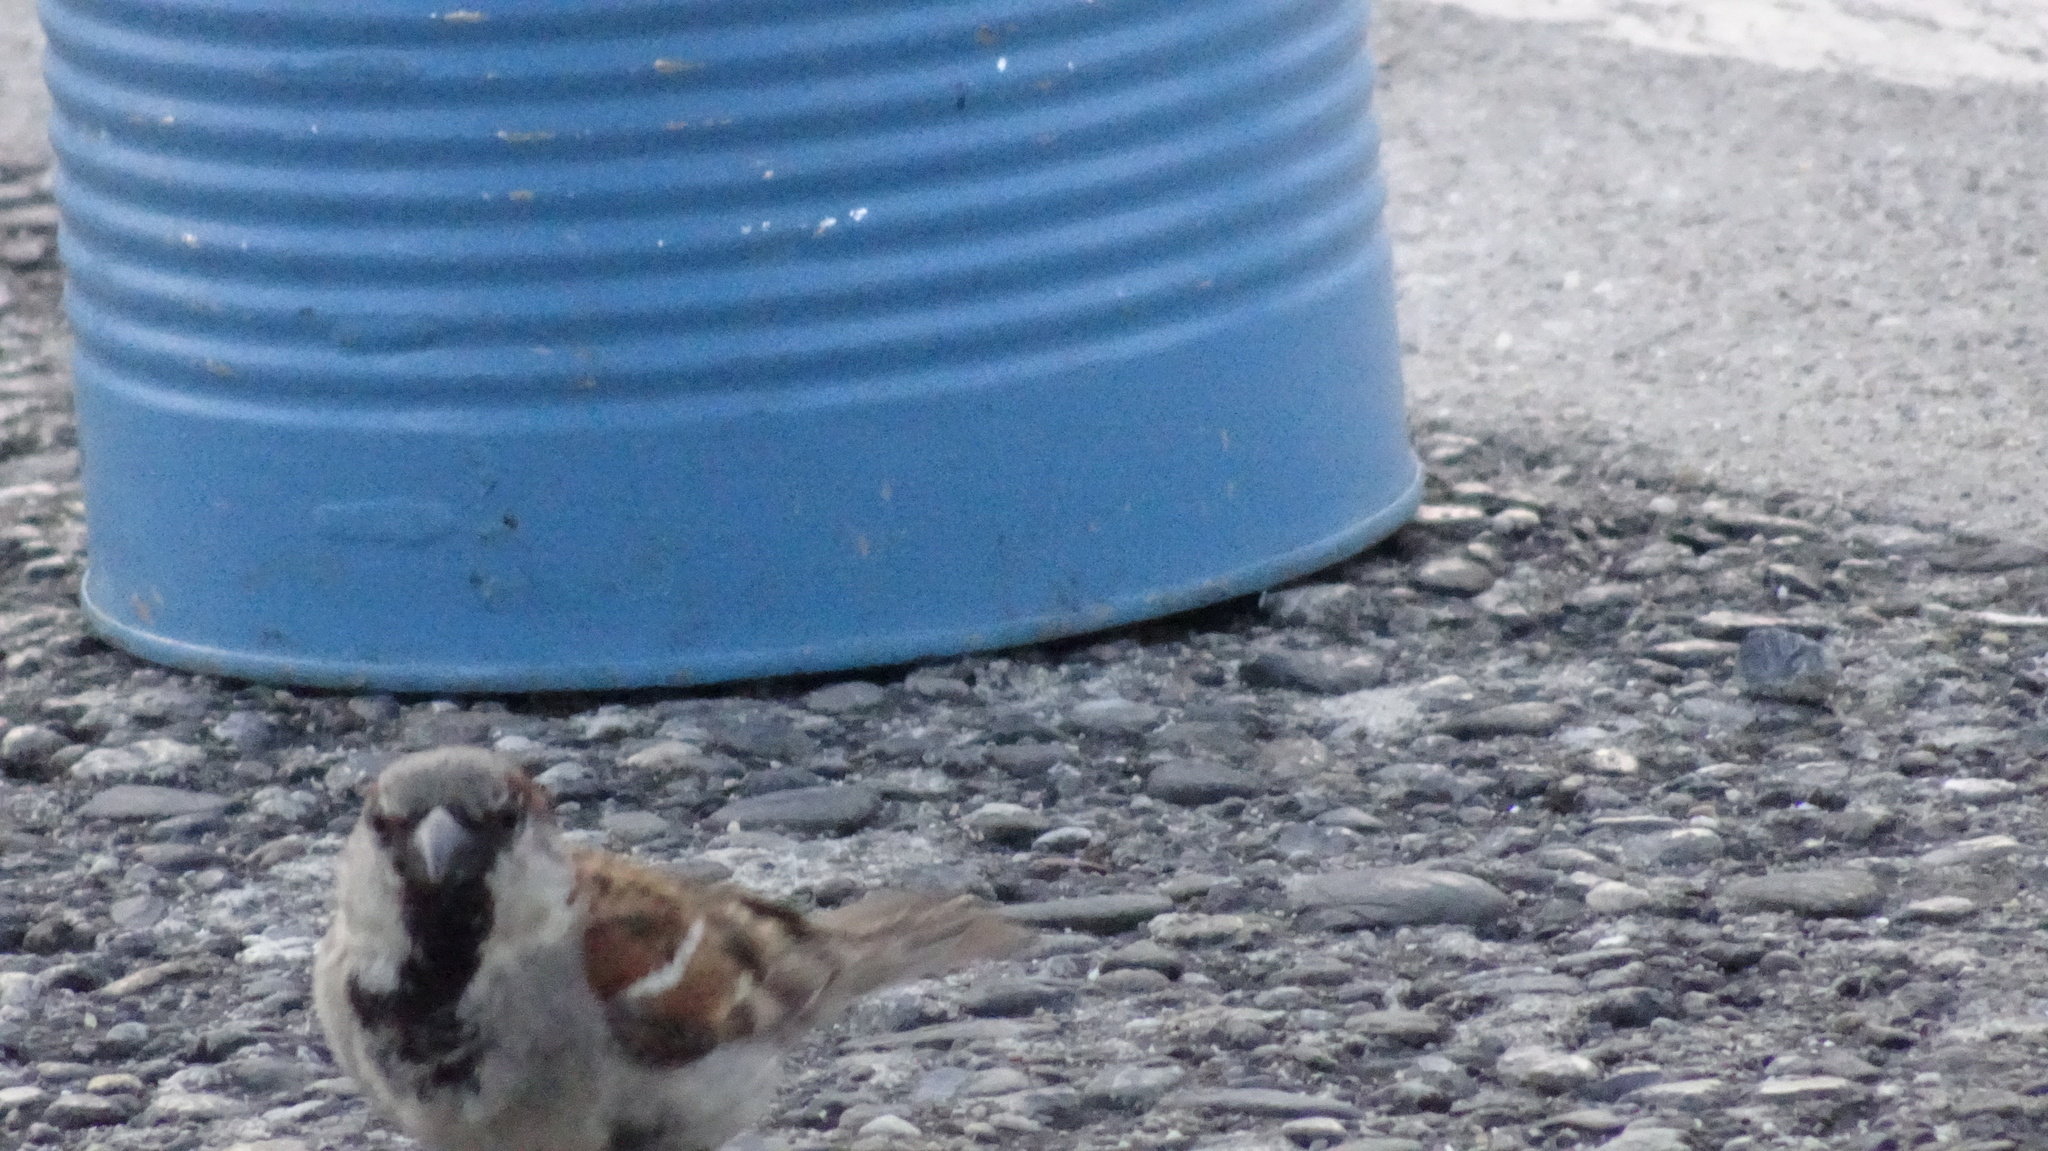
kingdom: Animalia
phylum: Chordata
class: Aves
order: Passeriformes
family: Passeridae
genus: Passer
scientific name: Passer domesticus
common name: House sparrow
